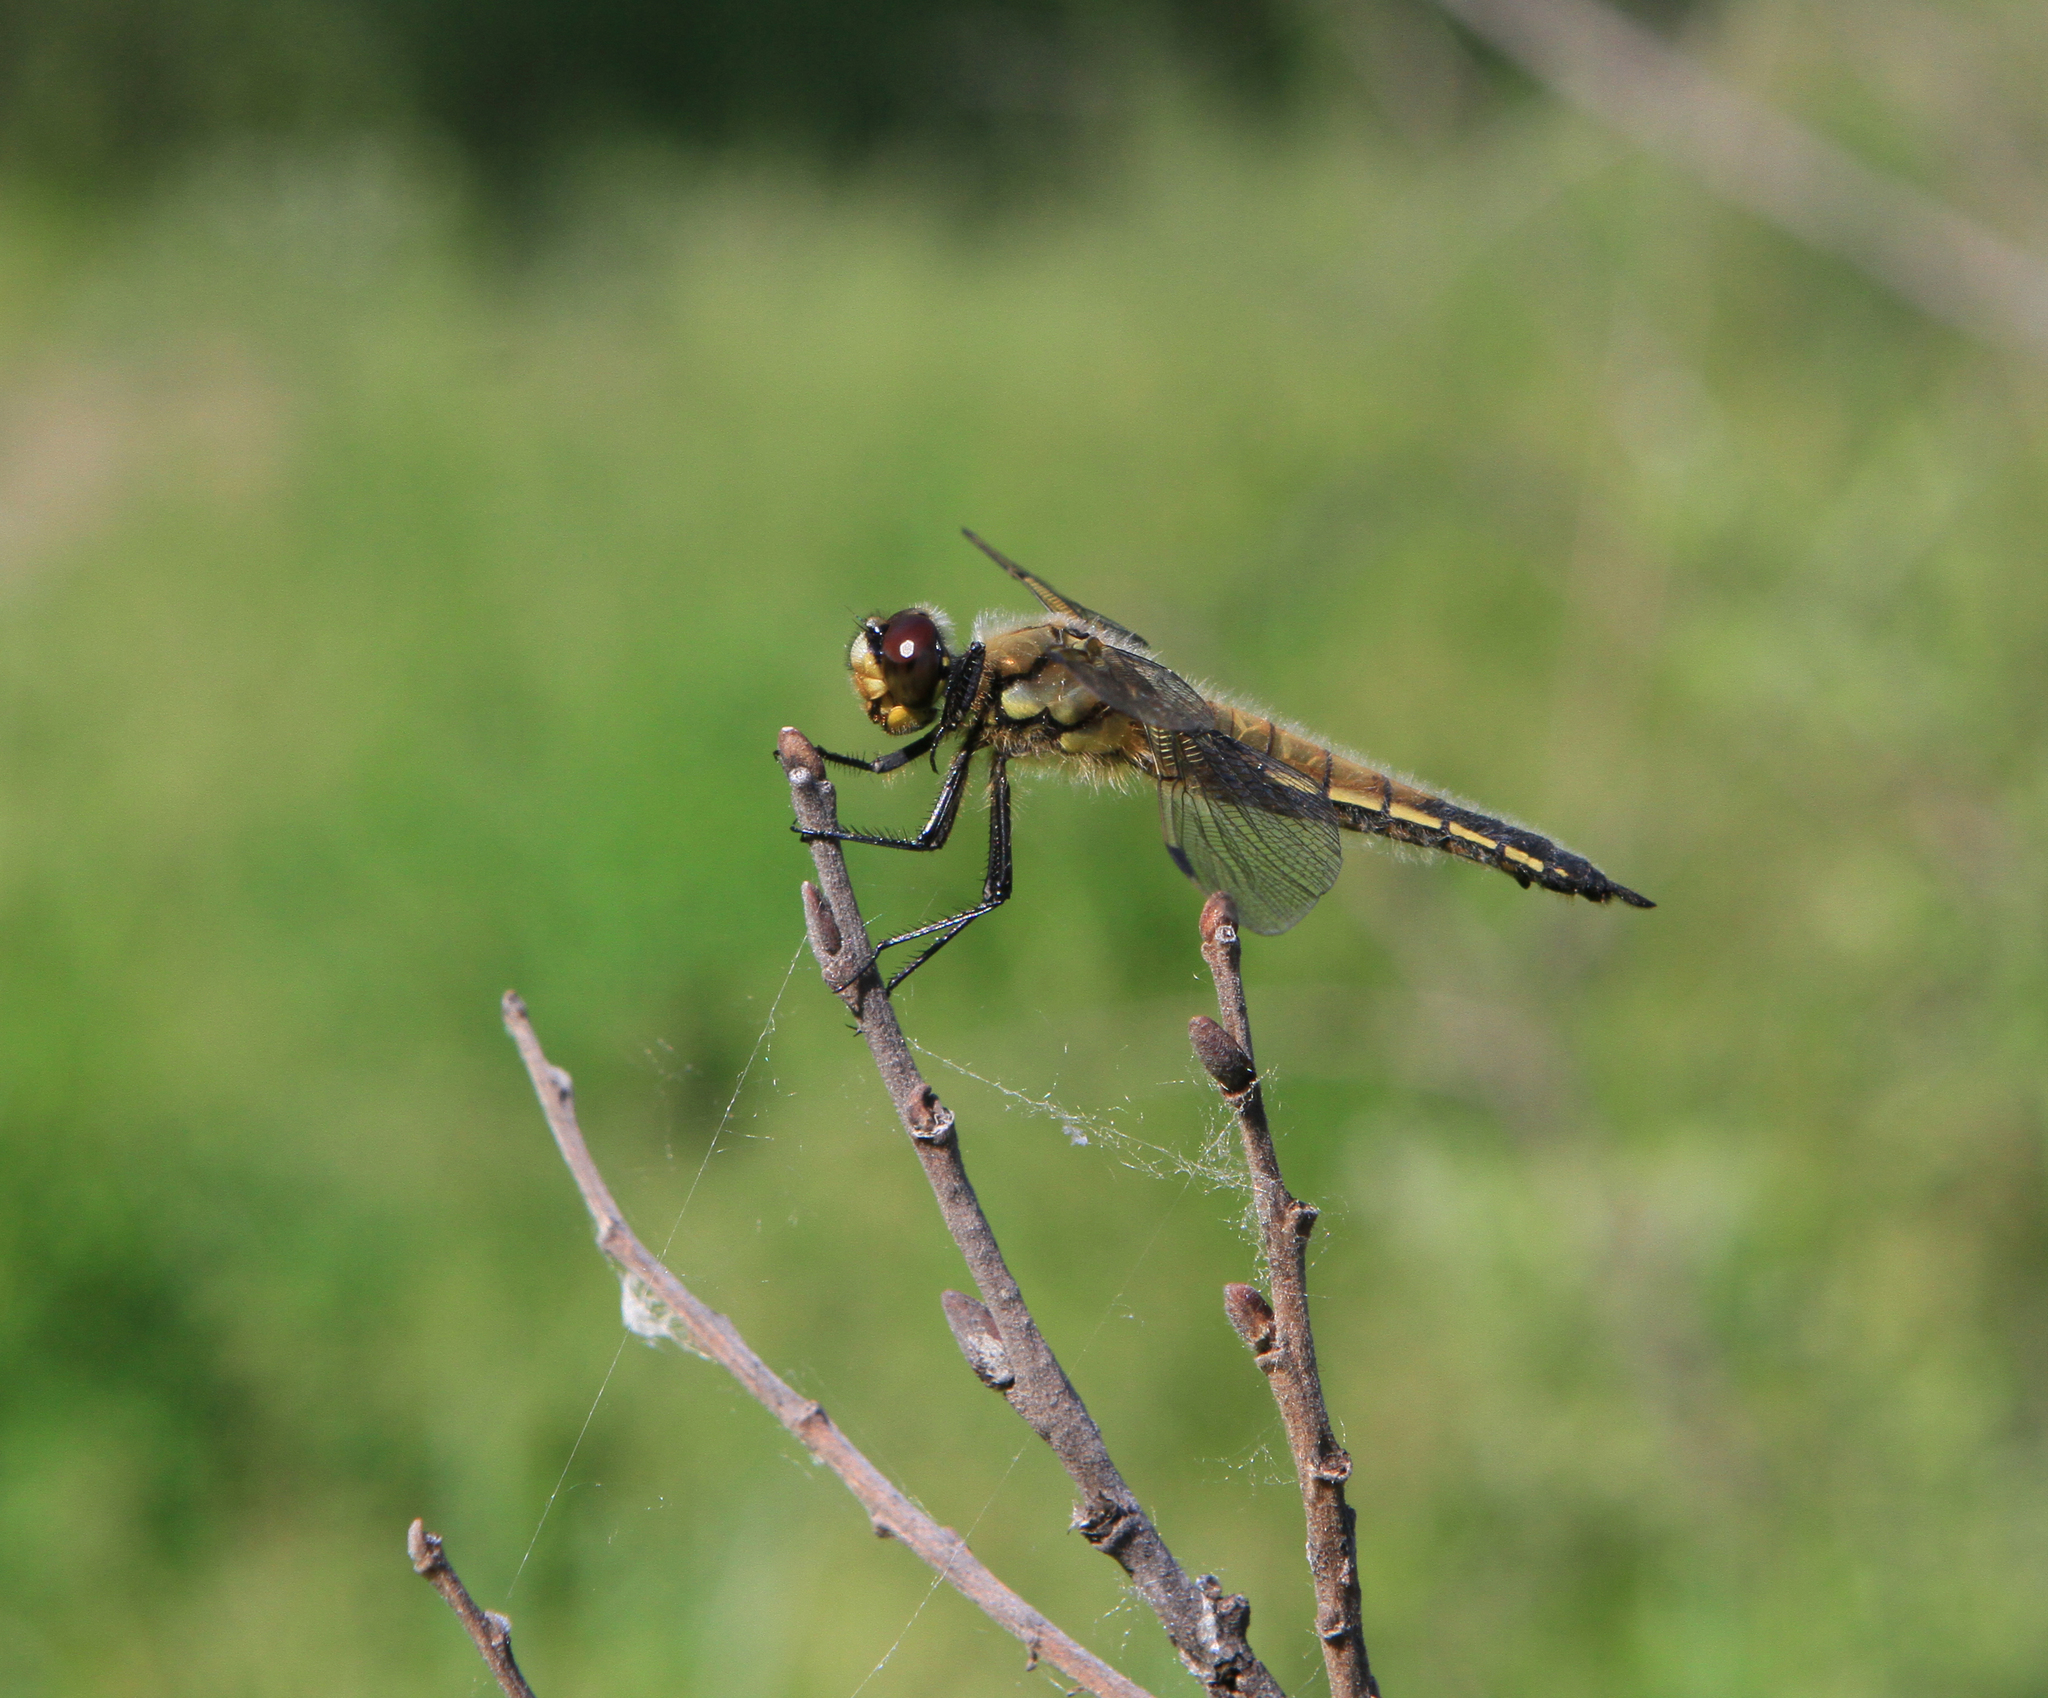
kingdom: Animalia
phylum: Arthropoda
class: Insecta
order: Odonata
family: Libellulidae
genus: Libellula
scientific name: Libellula quadrimaculata
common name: Four-spotted chaser
